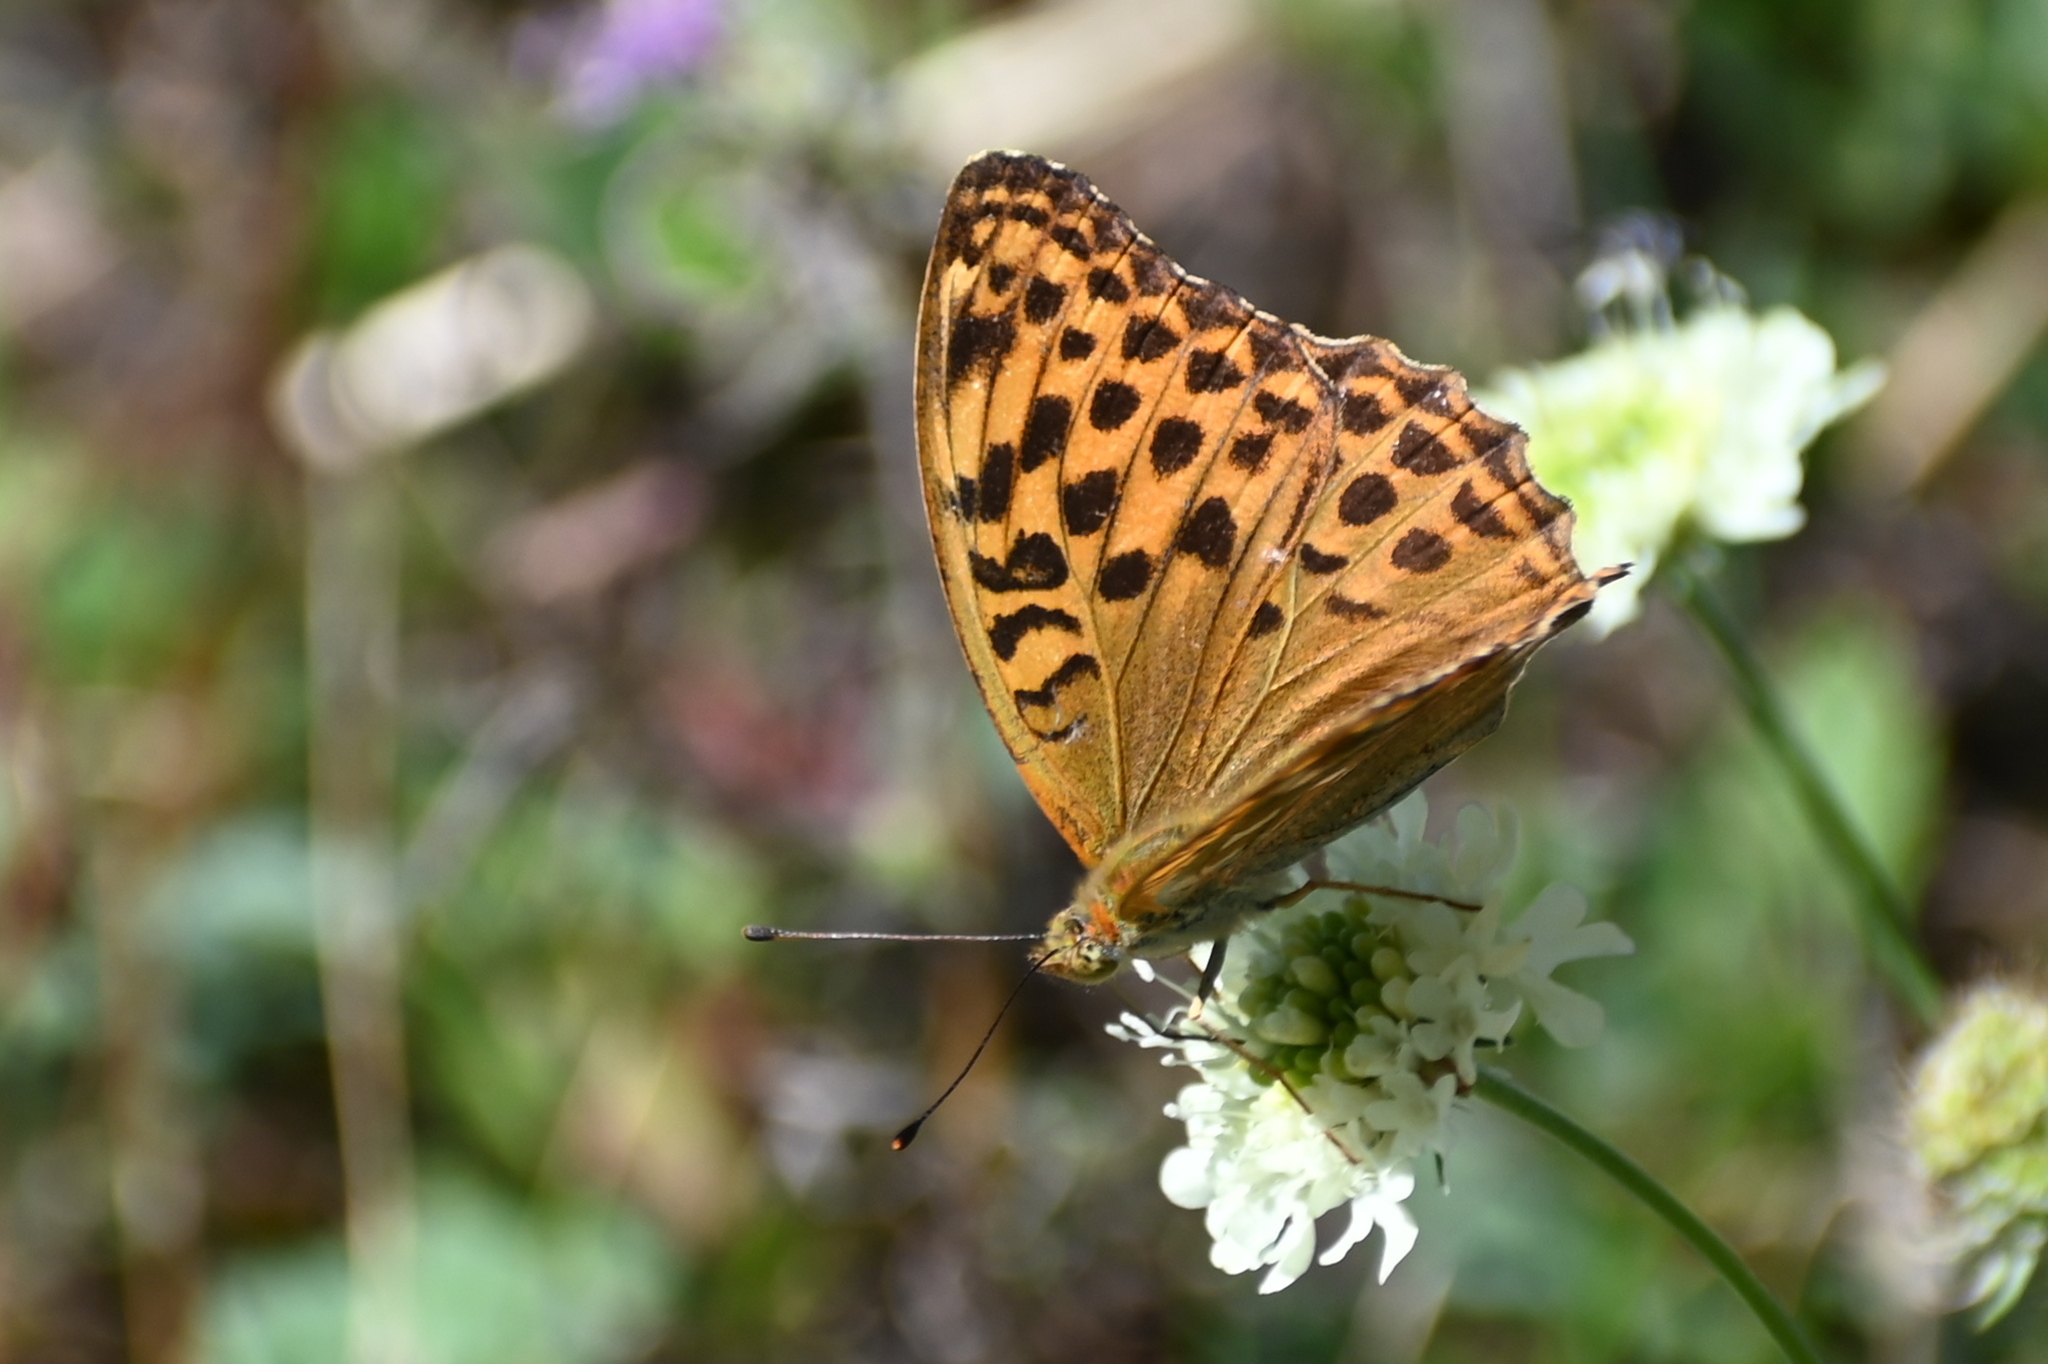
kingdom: Animalia
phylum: Arthropoda
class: Insecta
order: Lepidoptera
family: Nymphalidae
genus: Argynnis
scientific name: Argynnis paphia
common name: Silver-washed fritillary
